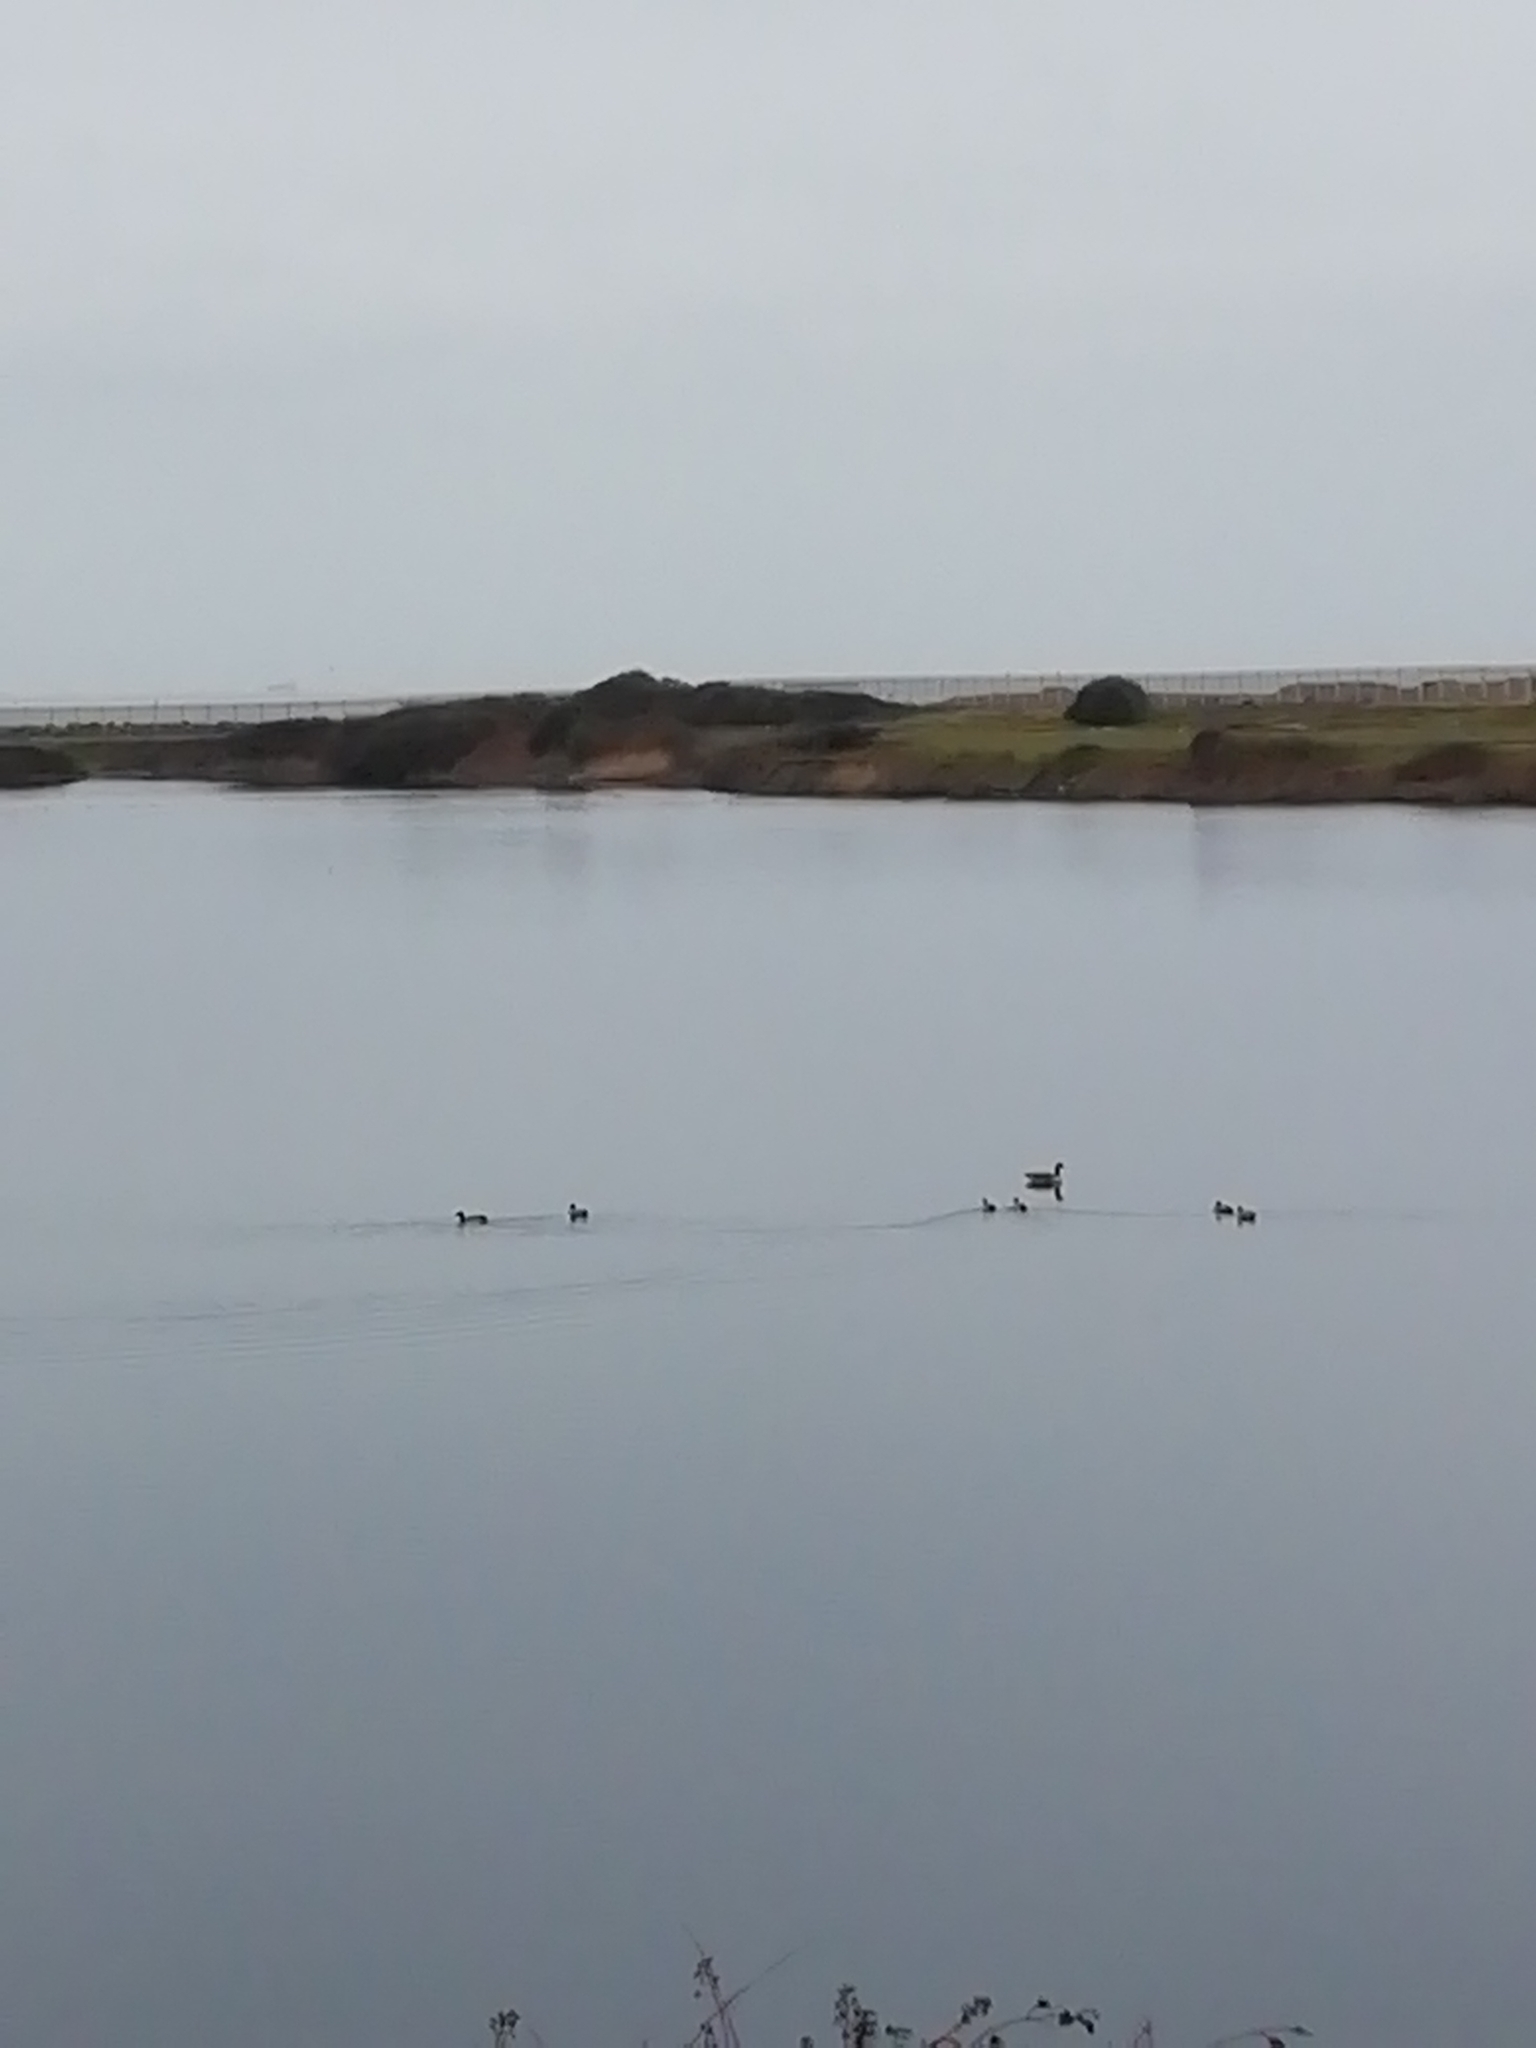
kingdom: Animalia
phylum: Chordata
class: Aves
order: Anseriformes
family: Anatidae
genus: Anas
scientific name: Anas platyrhynchos
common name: Mallard
